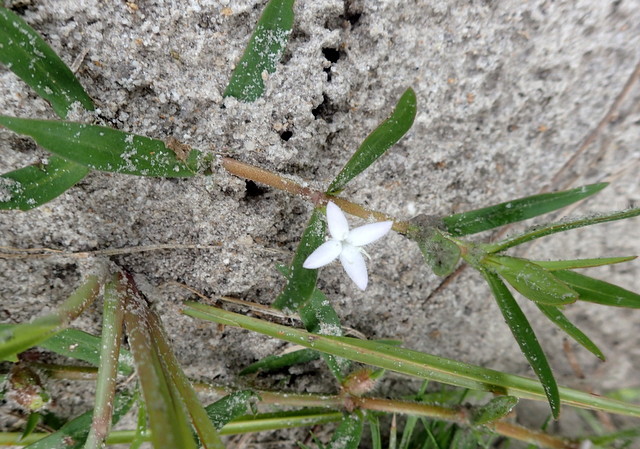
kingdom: Plantae
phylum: Tracheophyta
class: Magnoliopsida
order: Gentianales
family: Rubiaceae
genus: Diodia
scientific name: Diodia virginiana
